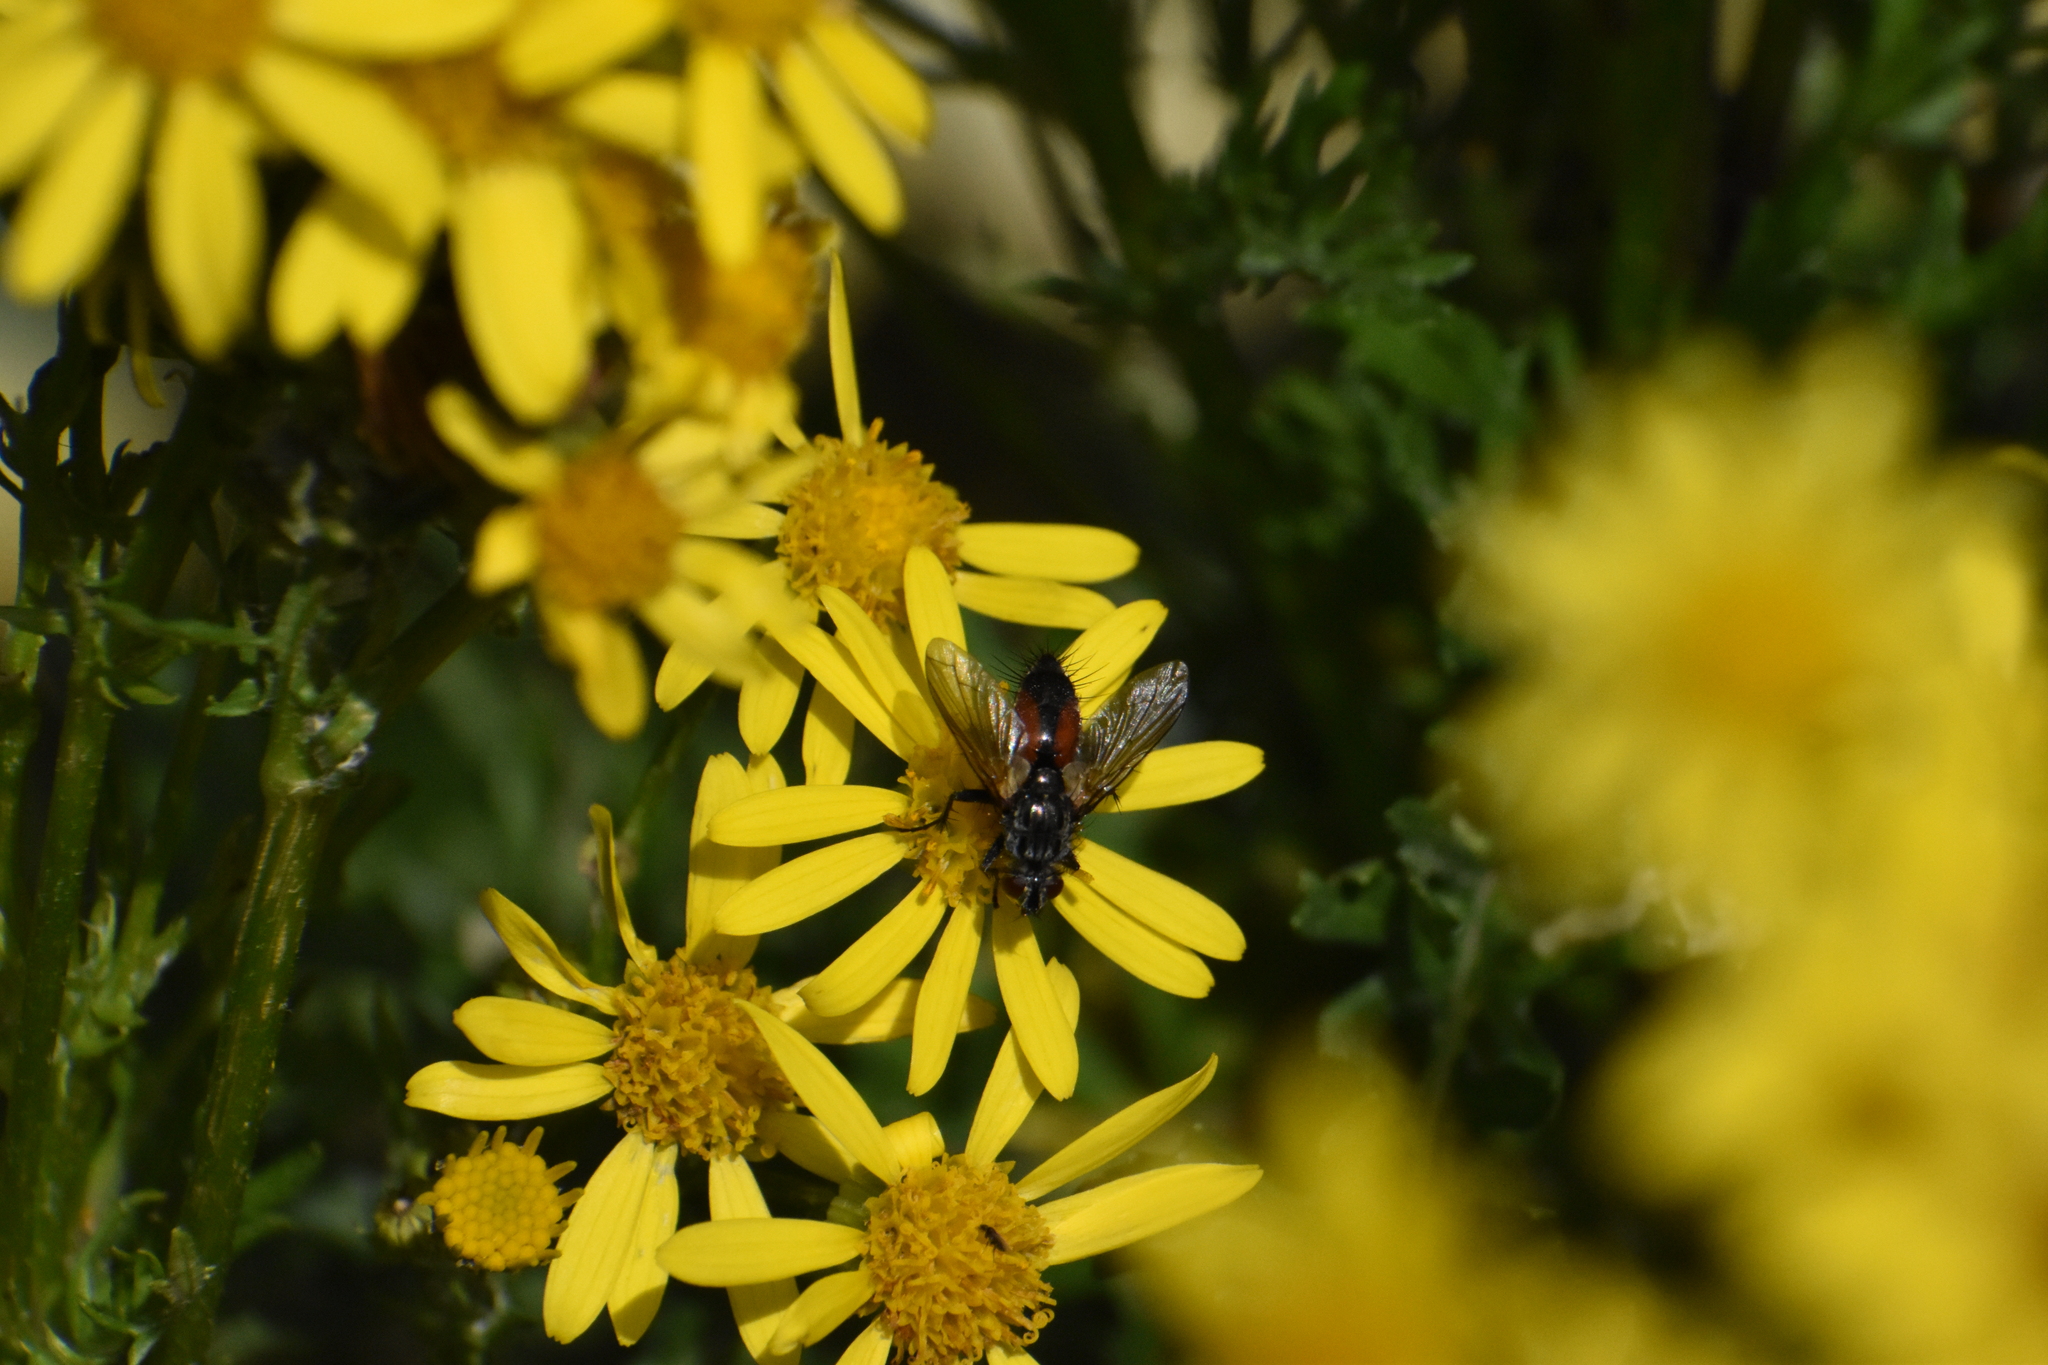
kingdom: Animalia
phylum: Arthropoda
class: Insecta
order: Diptera
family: Tachinidae
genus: Eriothrix
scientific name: Eriothrix rufomaculatus
